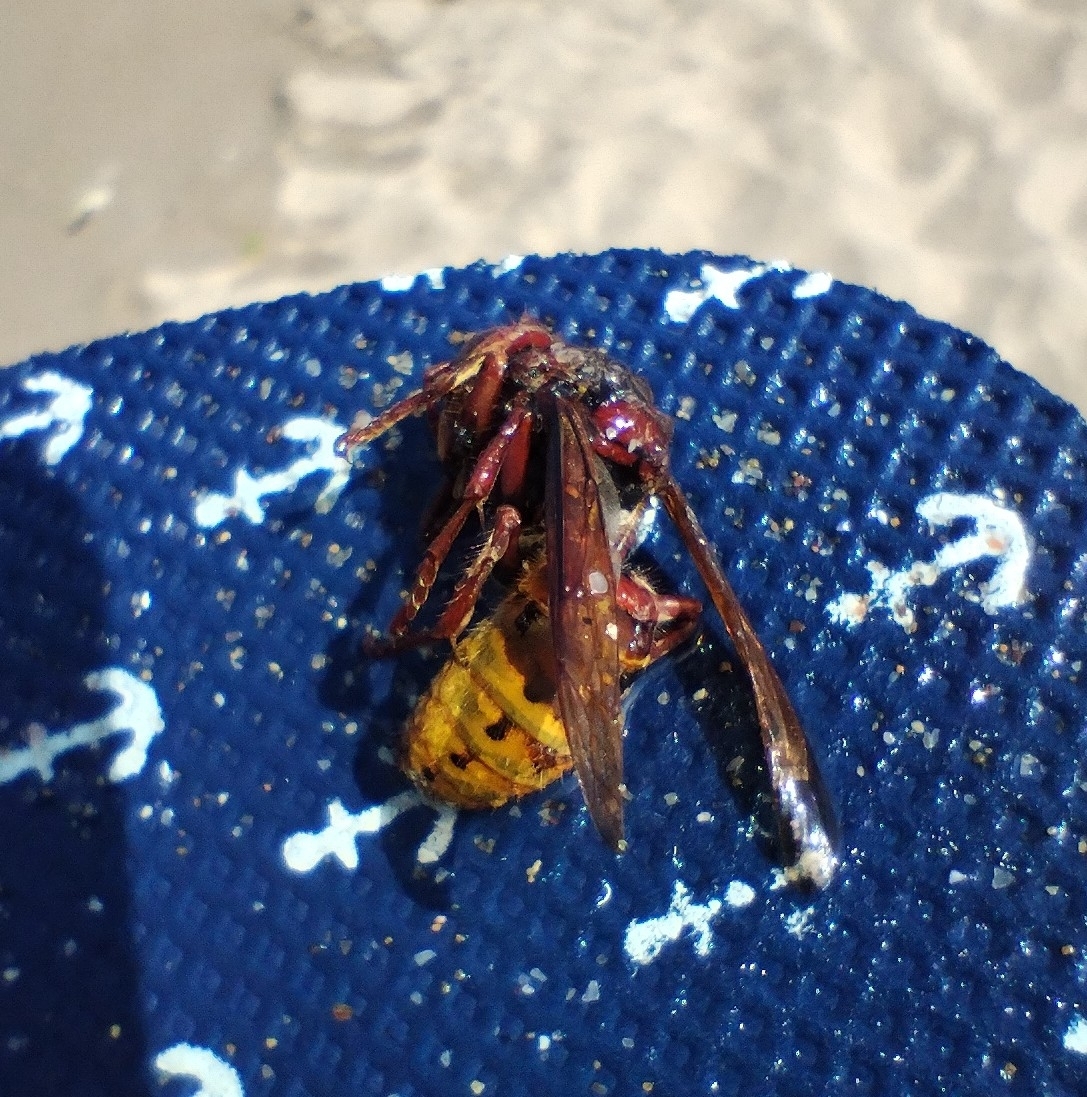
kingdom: Animalia
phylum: Arthropoda
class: Insecta
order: Hymenoptera
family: Vespidae
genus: Vespa
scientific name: Vespa crabro
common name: Hornet
